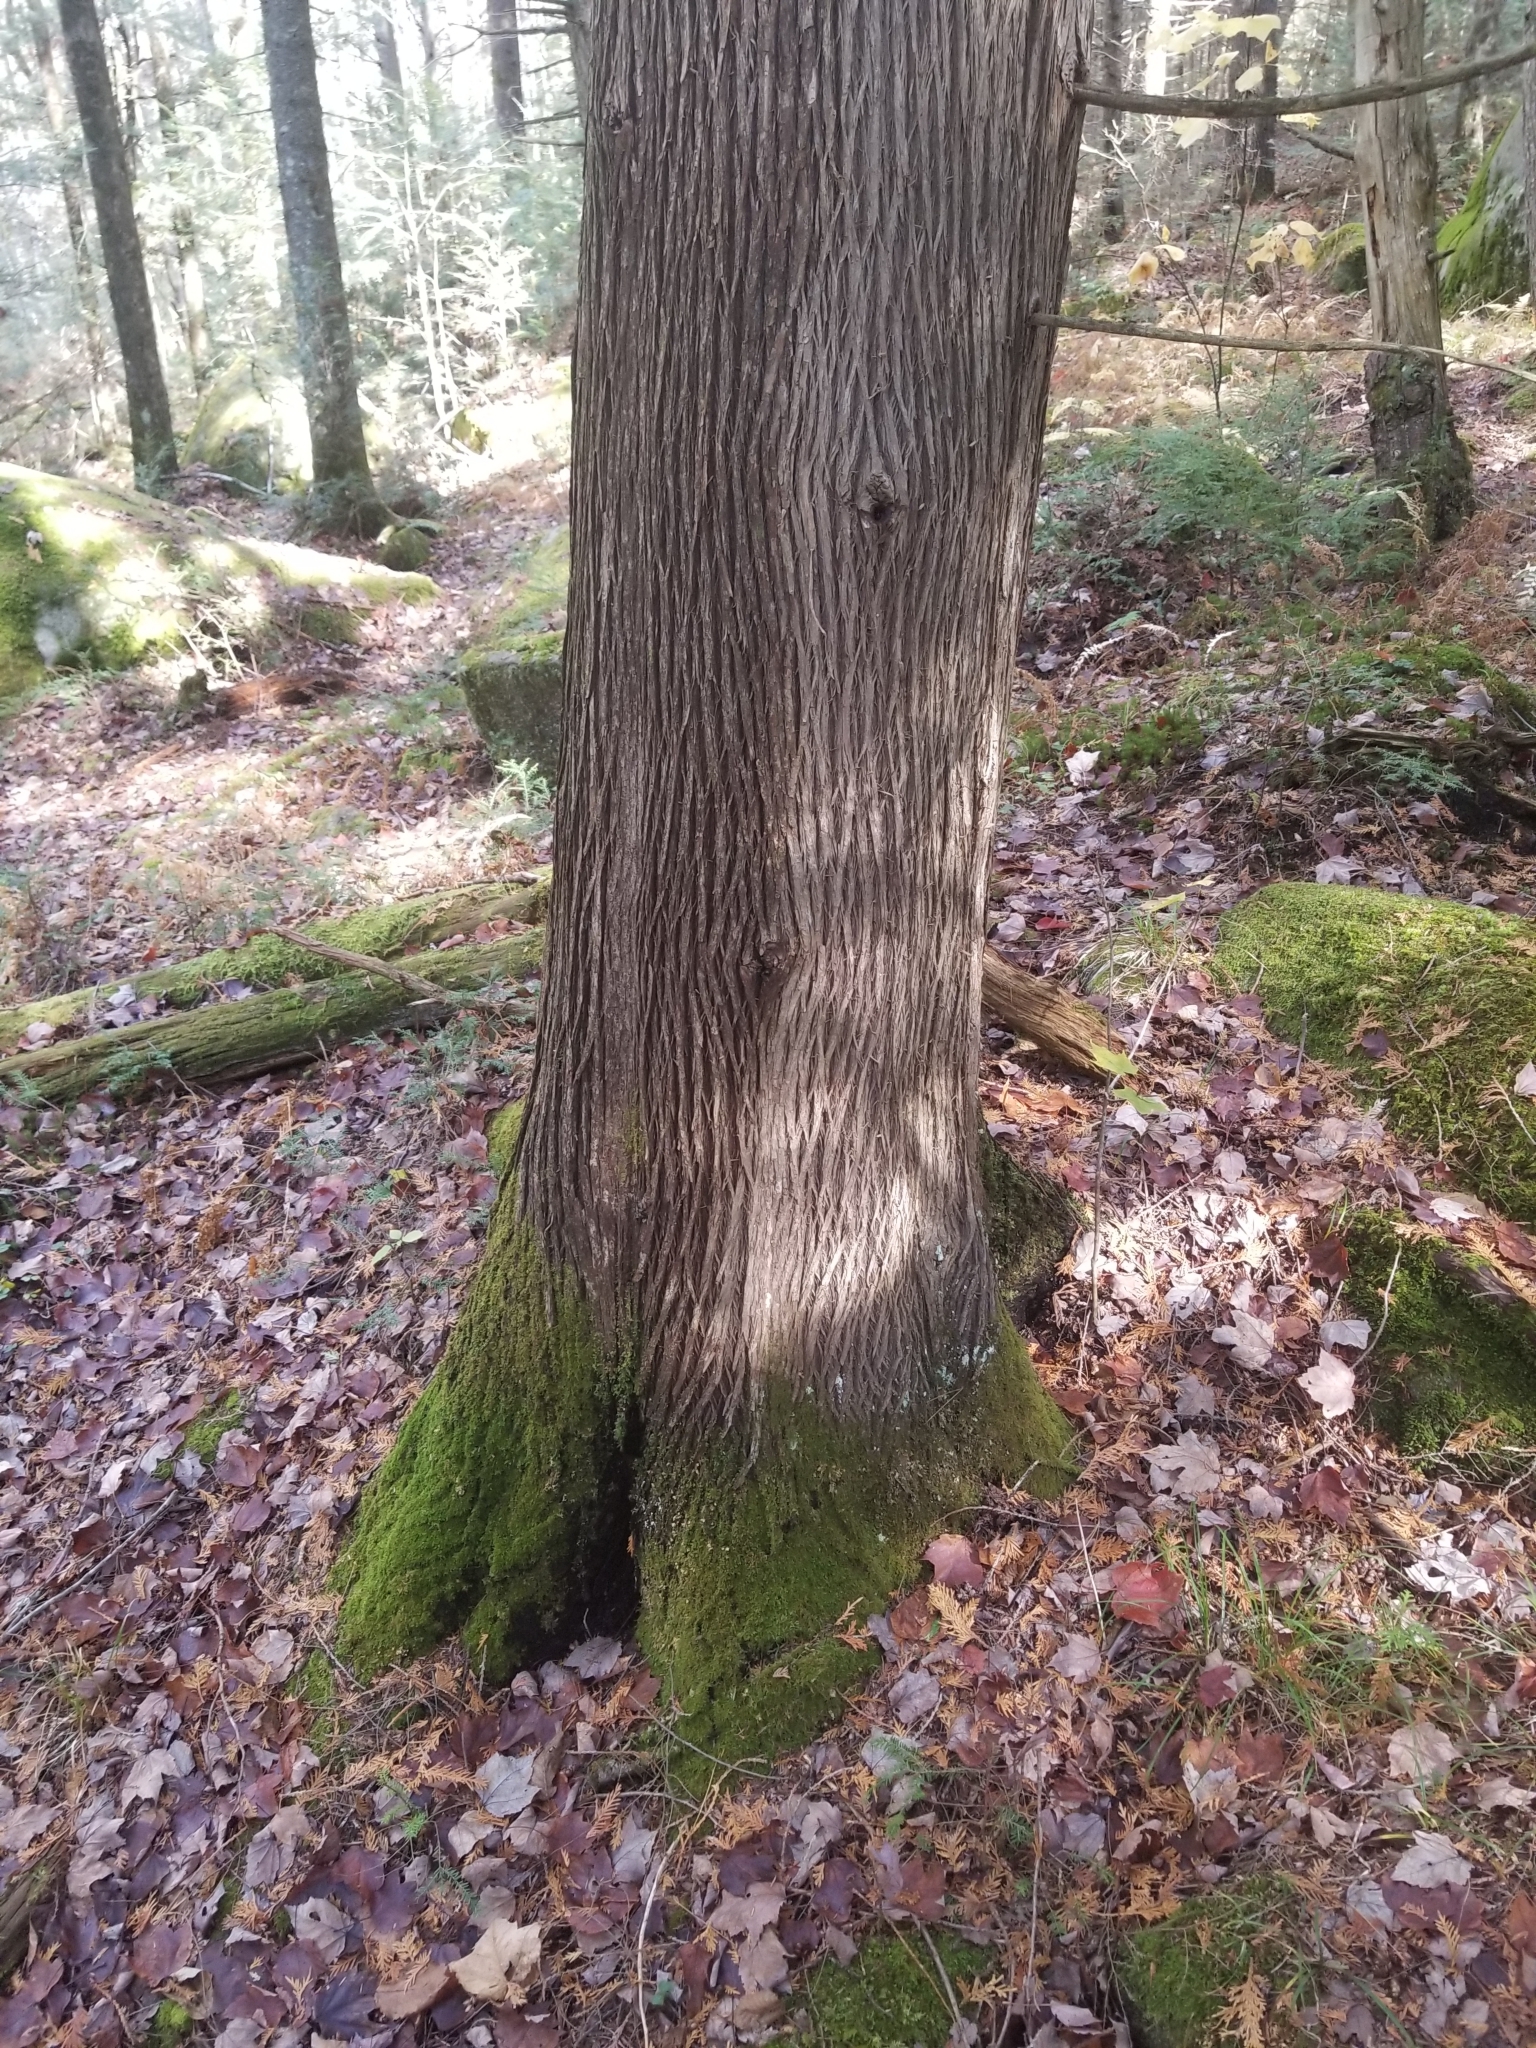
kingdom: Plantae
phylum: Tracheophyta
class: Pinopsida
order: Pinales
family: Cupressaceae
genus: Thuja
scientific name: Thuja occidentalis
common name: Northern white-cedar
